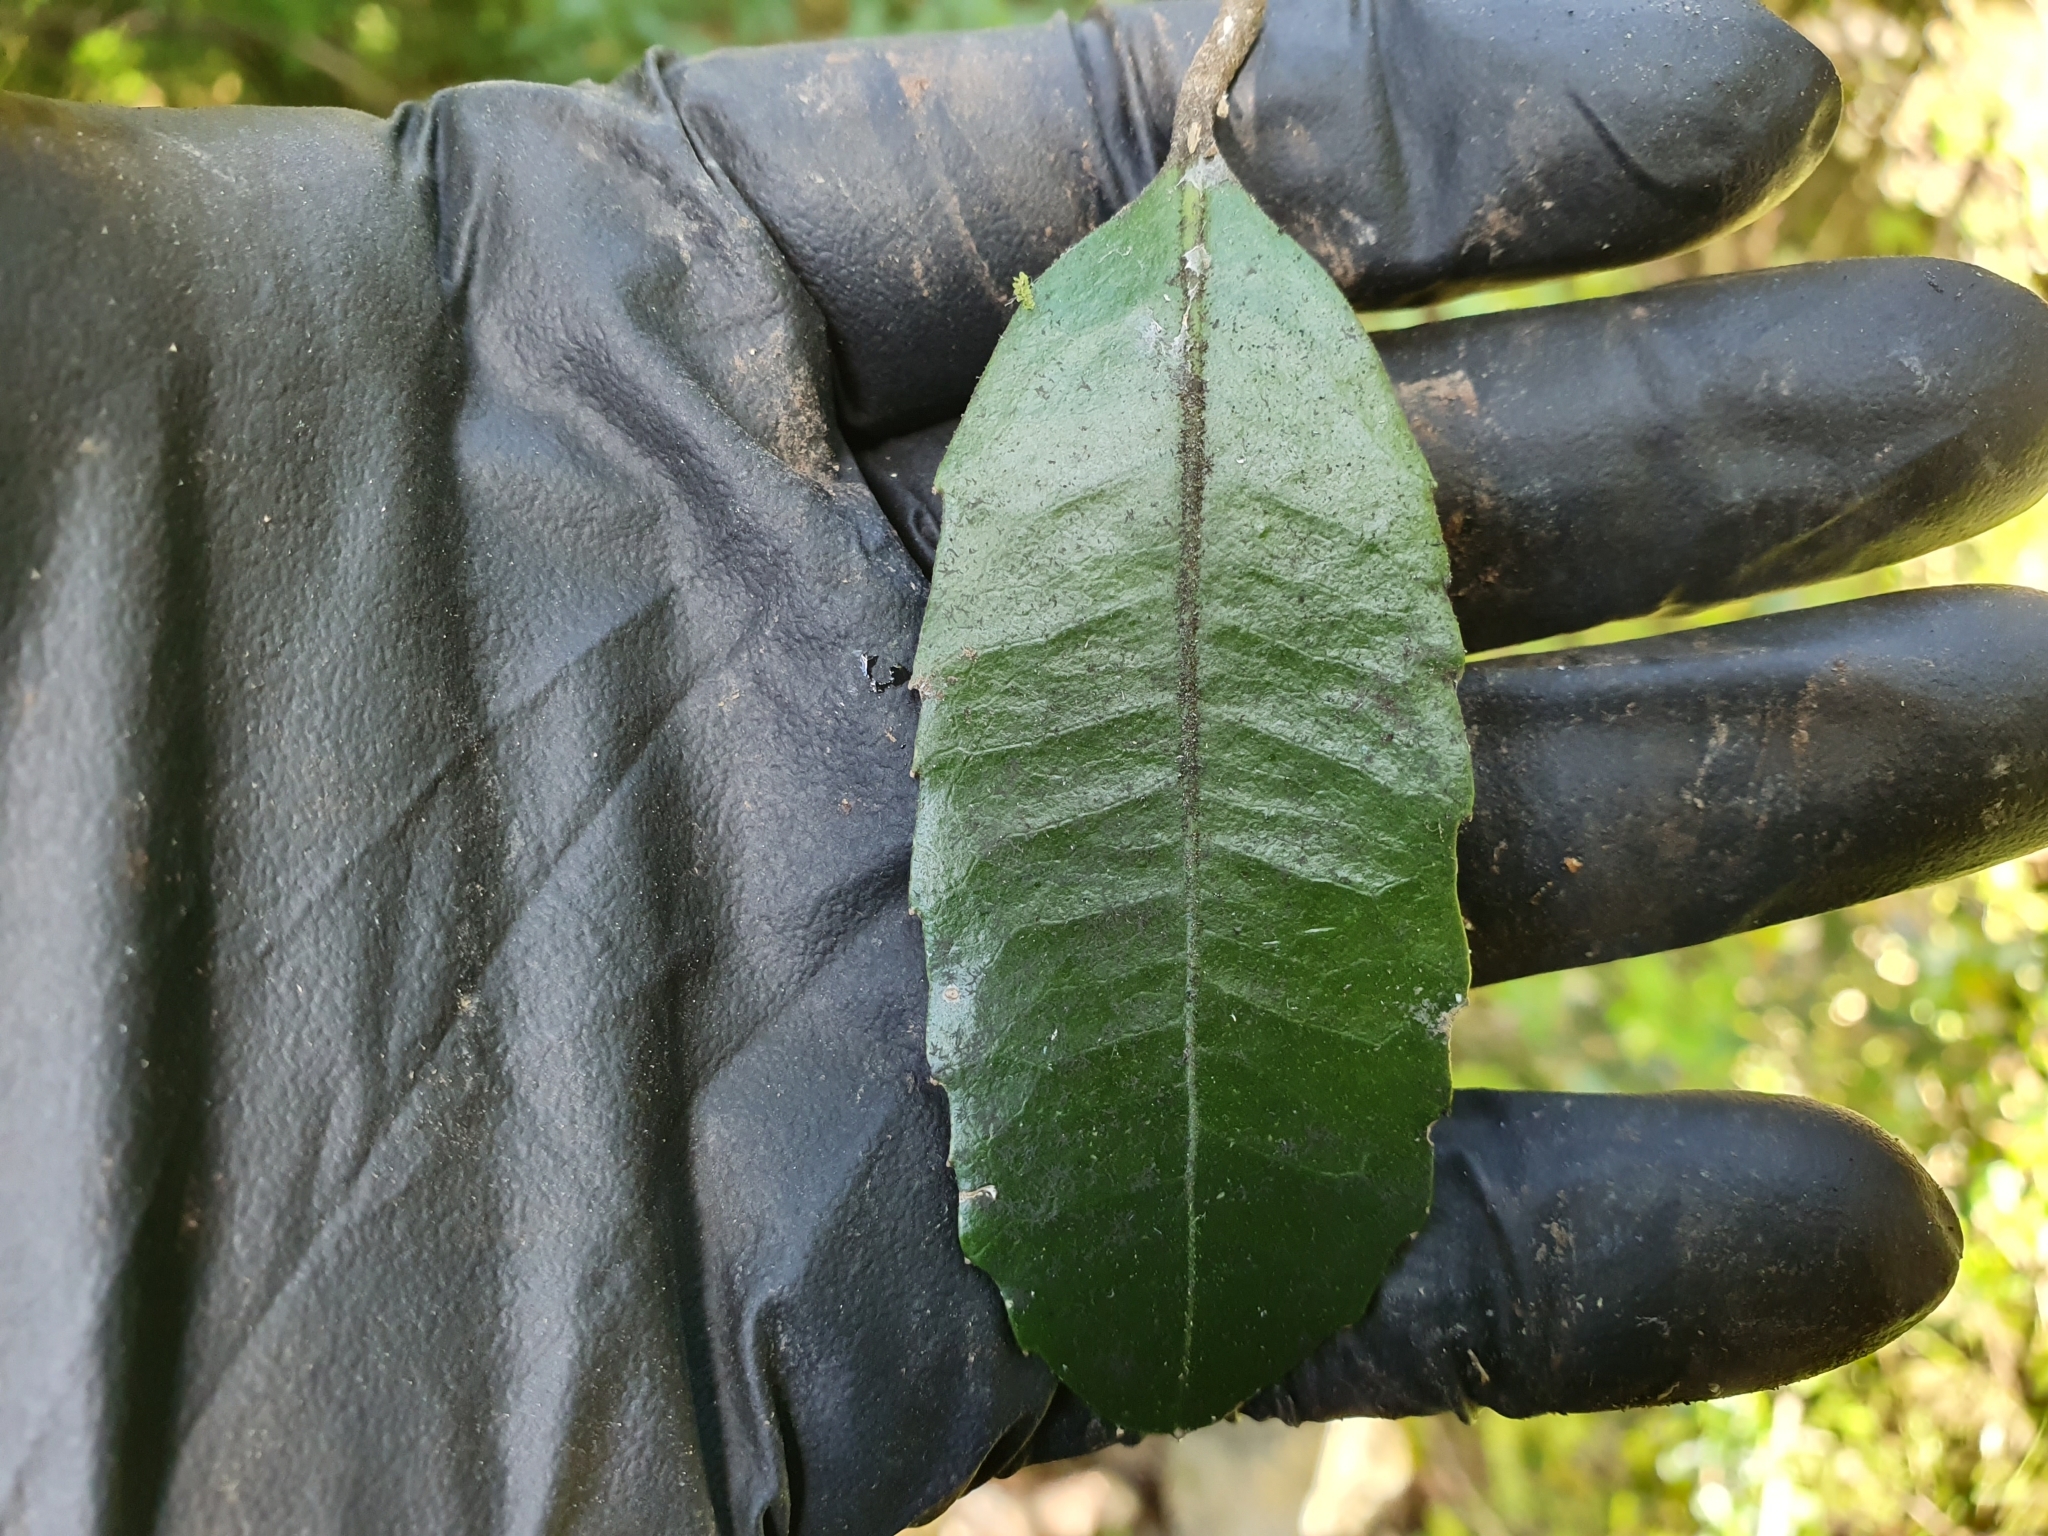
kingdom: Plantae
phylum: Tracheophyta
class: Magnoliopsida
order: Laurales
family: Monimiaceae
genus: Hedycarya
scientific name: Hedycarya arborea
